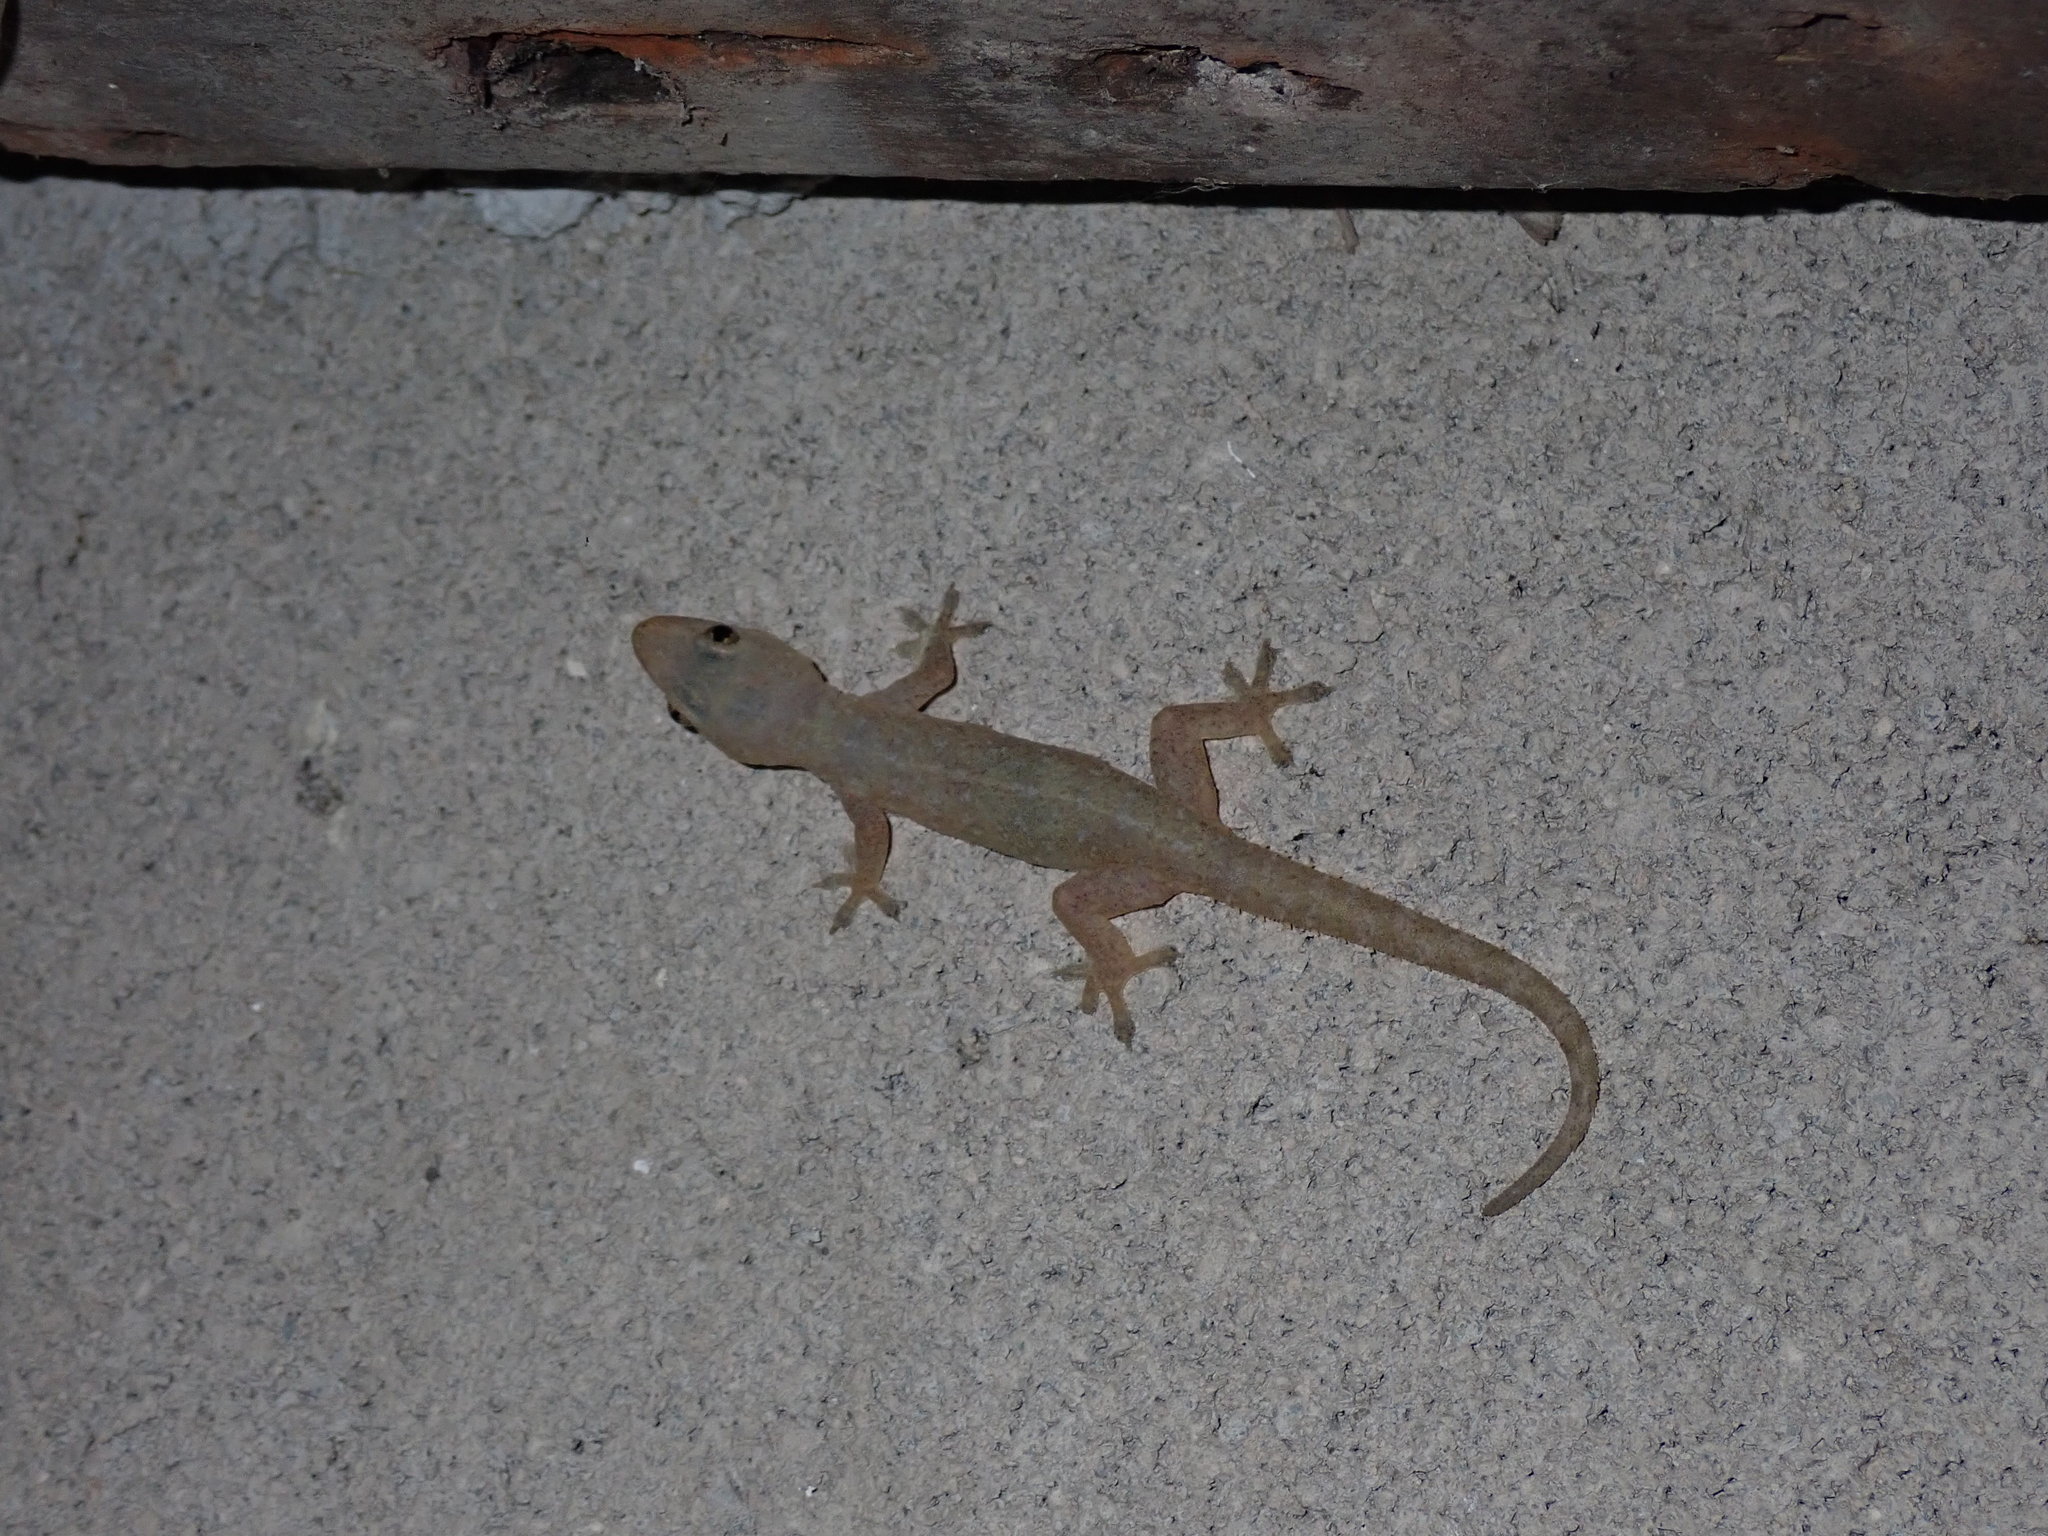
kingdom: Animalia
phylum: Chordata
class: Squamata
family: Gekkonidae
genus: Hemidactylus
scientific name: Hemidactylus frenatus
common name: Common house gecko
